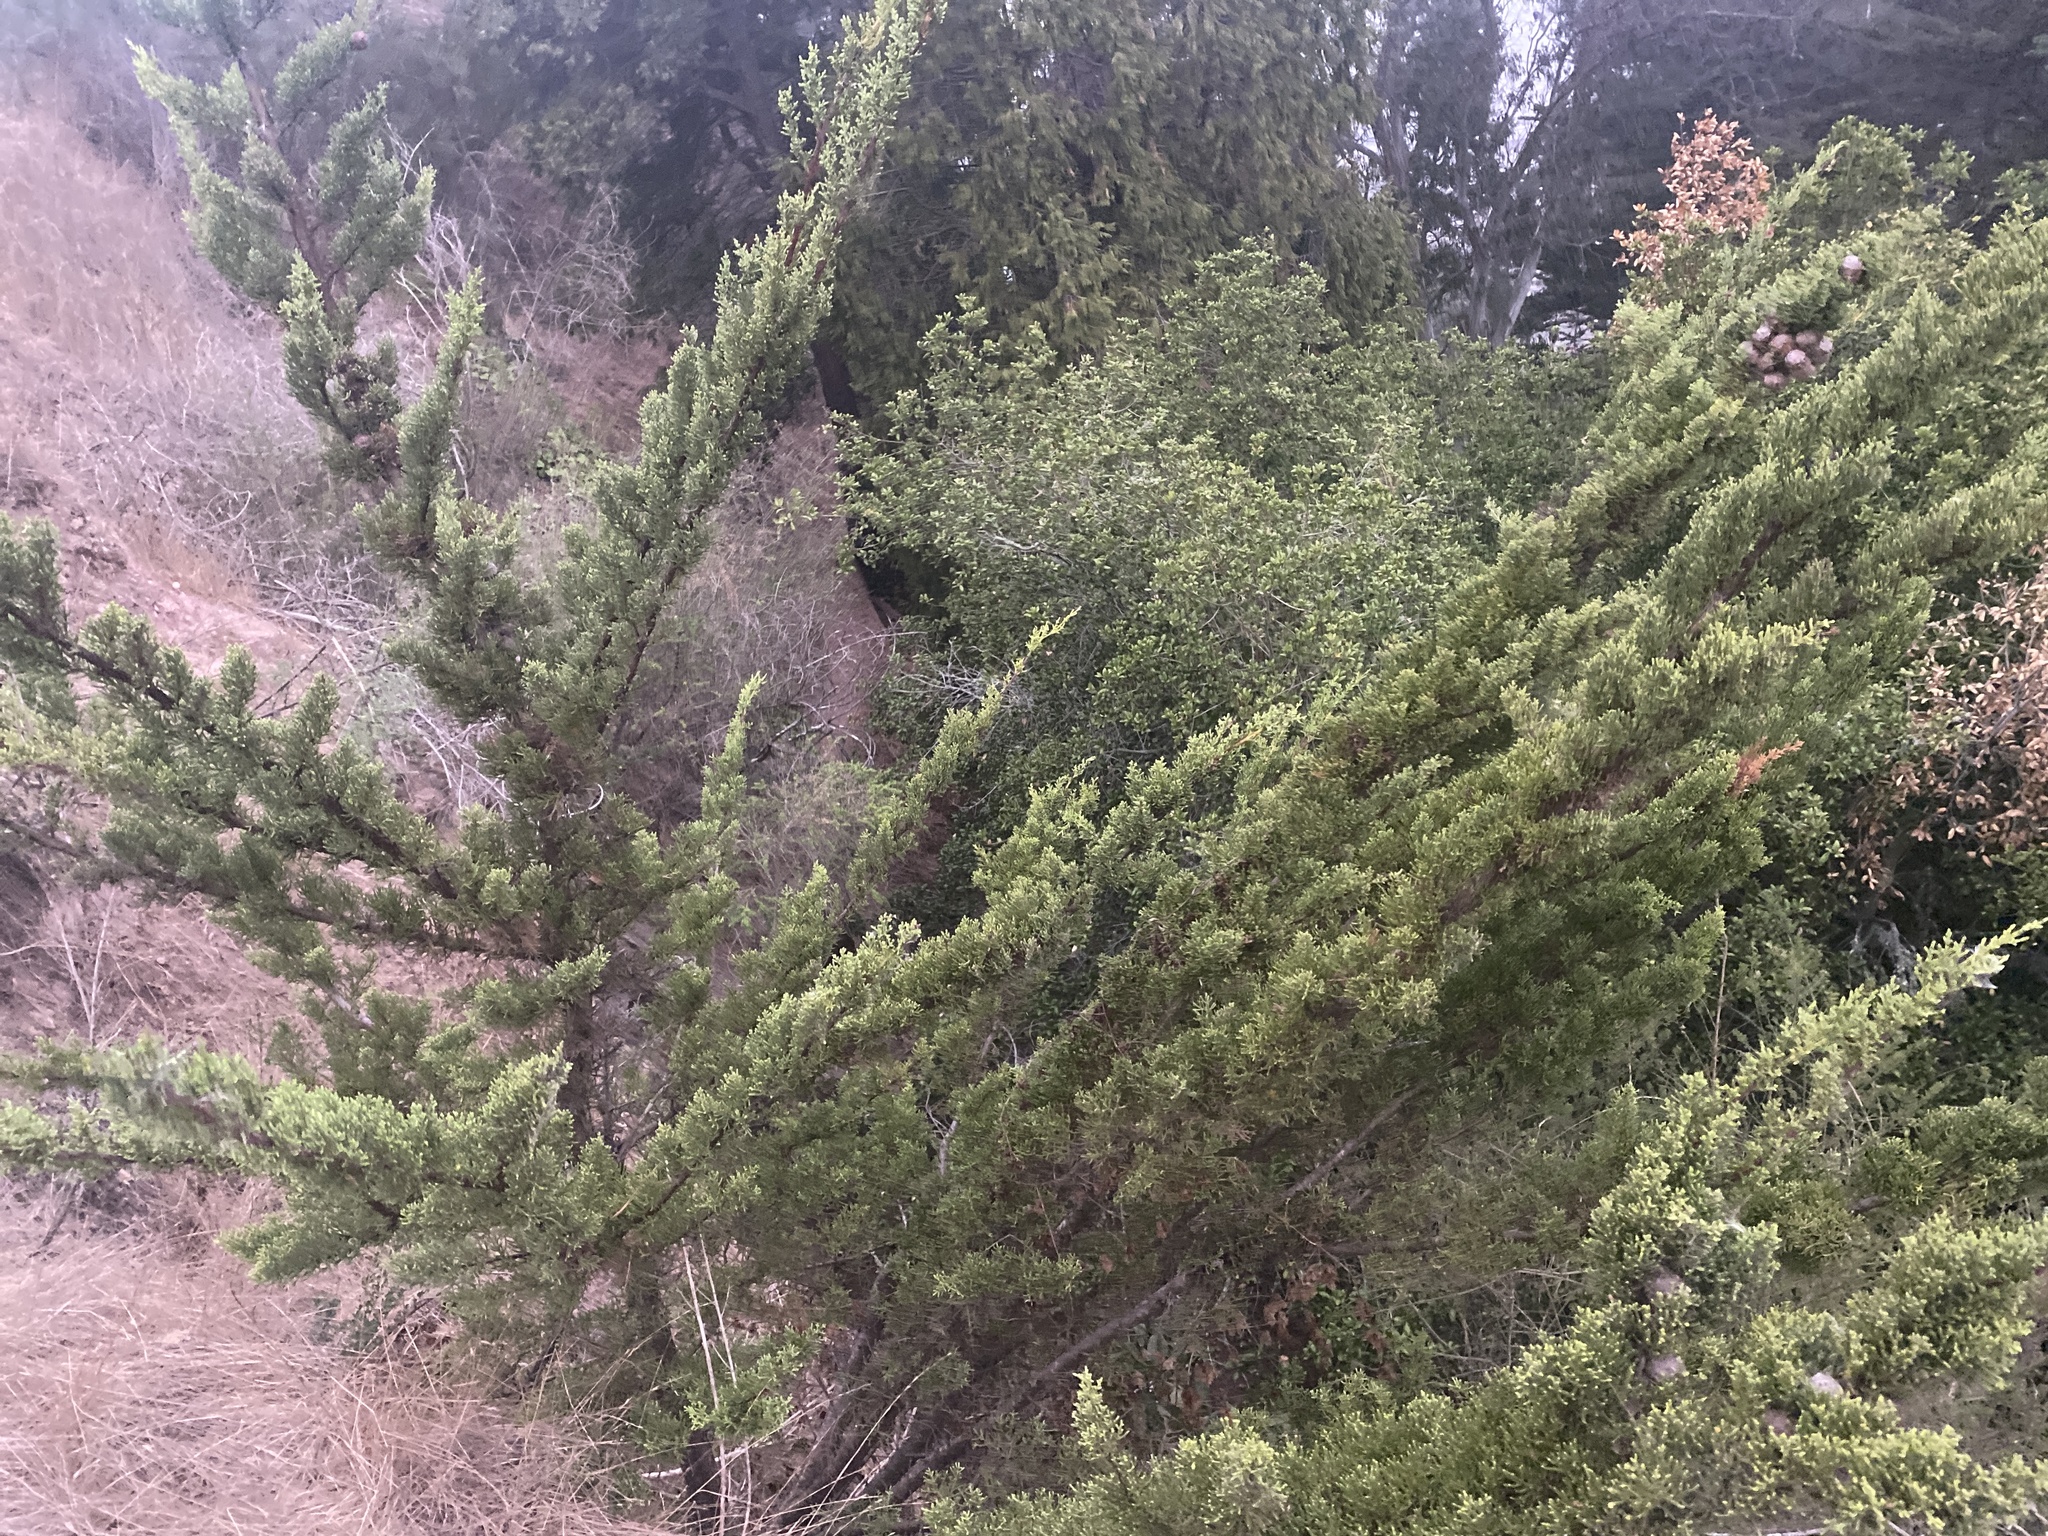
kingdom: Plantae
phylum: Tracheophyta
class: Pinopsida
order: Pinales
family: Cupressaceae
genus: Cupressus
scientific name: Cupressus macrocarpa
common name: Monterey cypress
